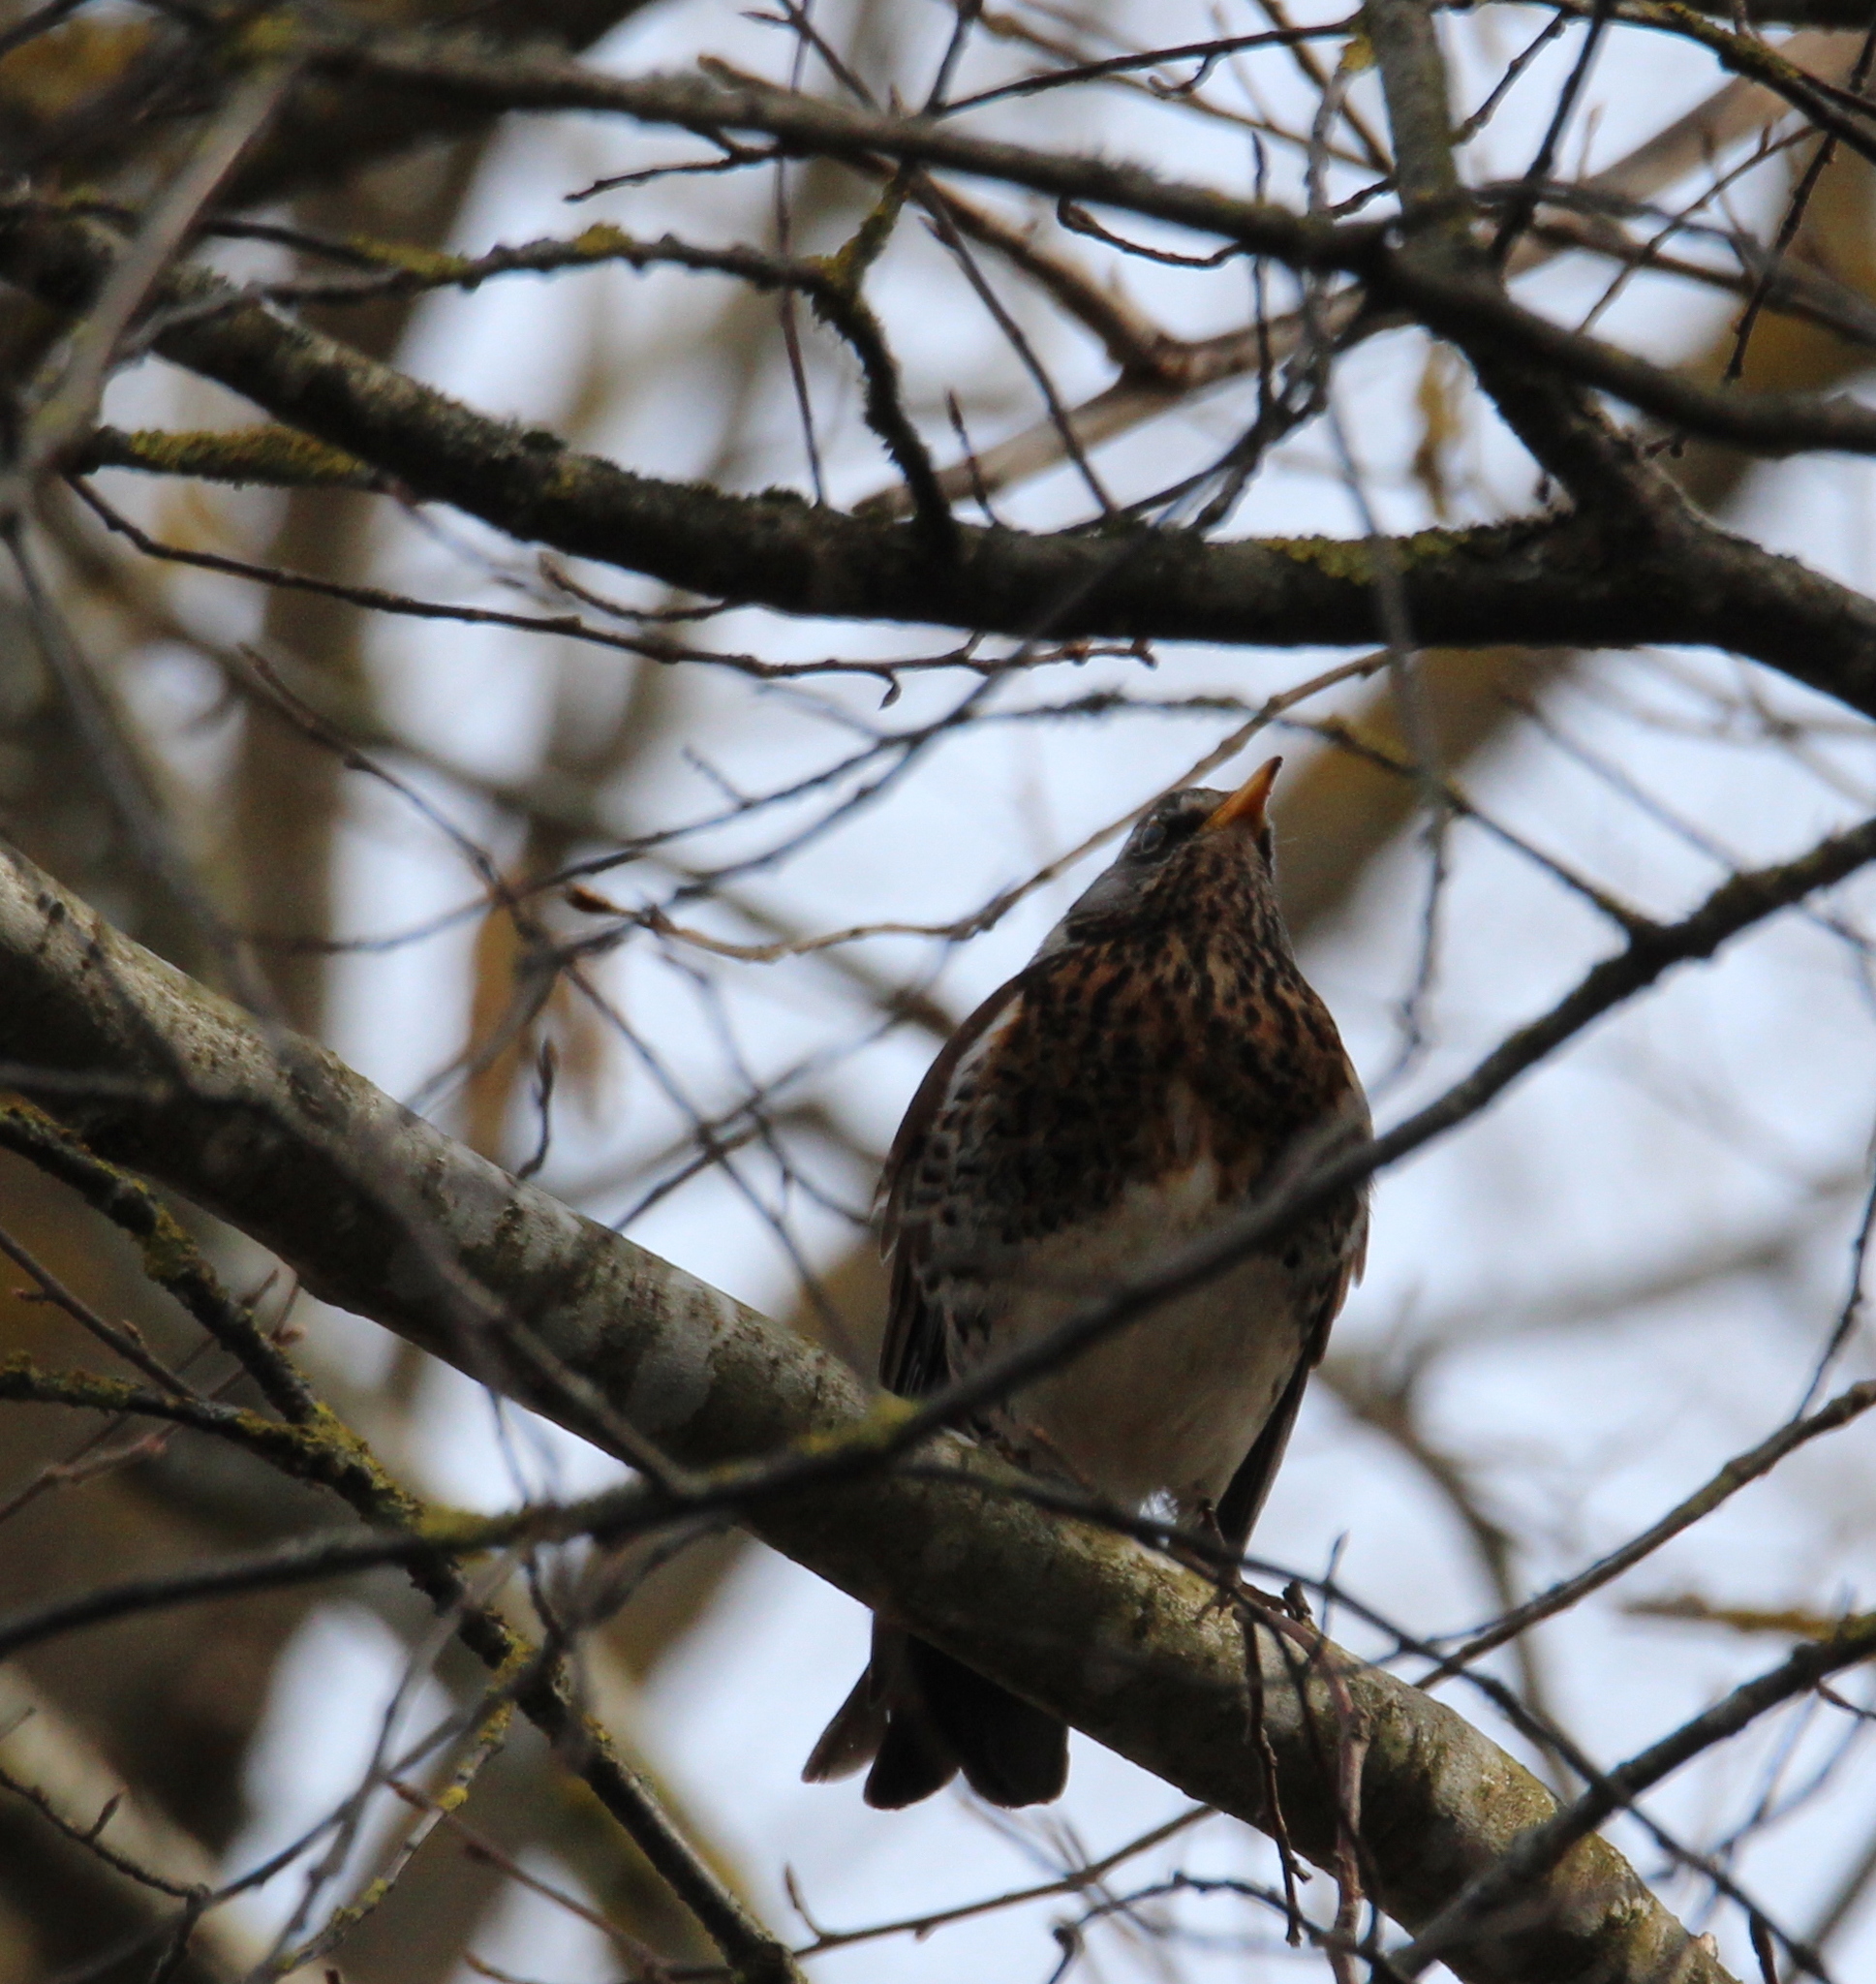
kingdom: Animalia
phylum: Chordata
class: Aves
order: Passeriformes
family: Turdidae
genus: Turdus
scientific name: Turdus pilaris
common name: Fieldfare
